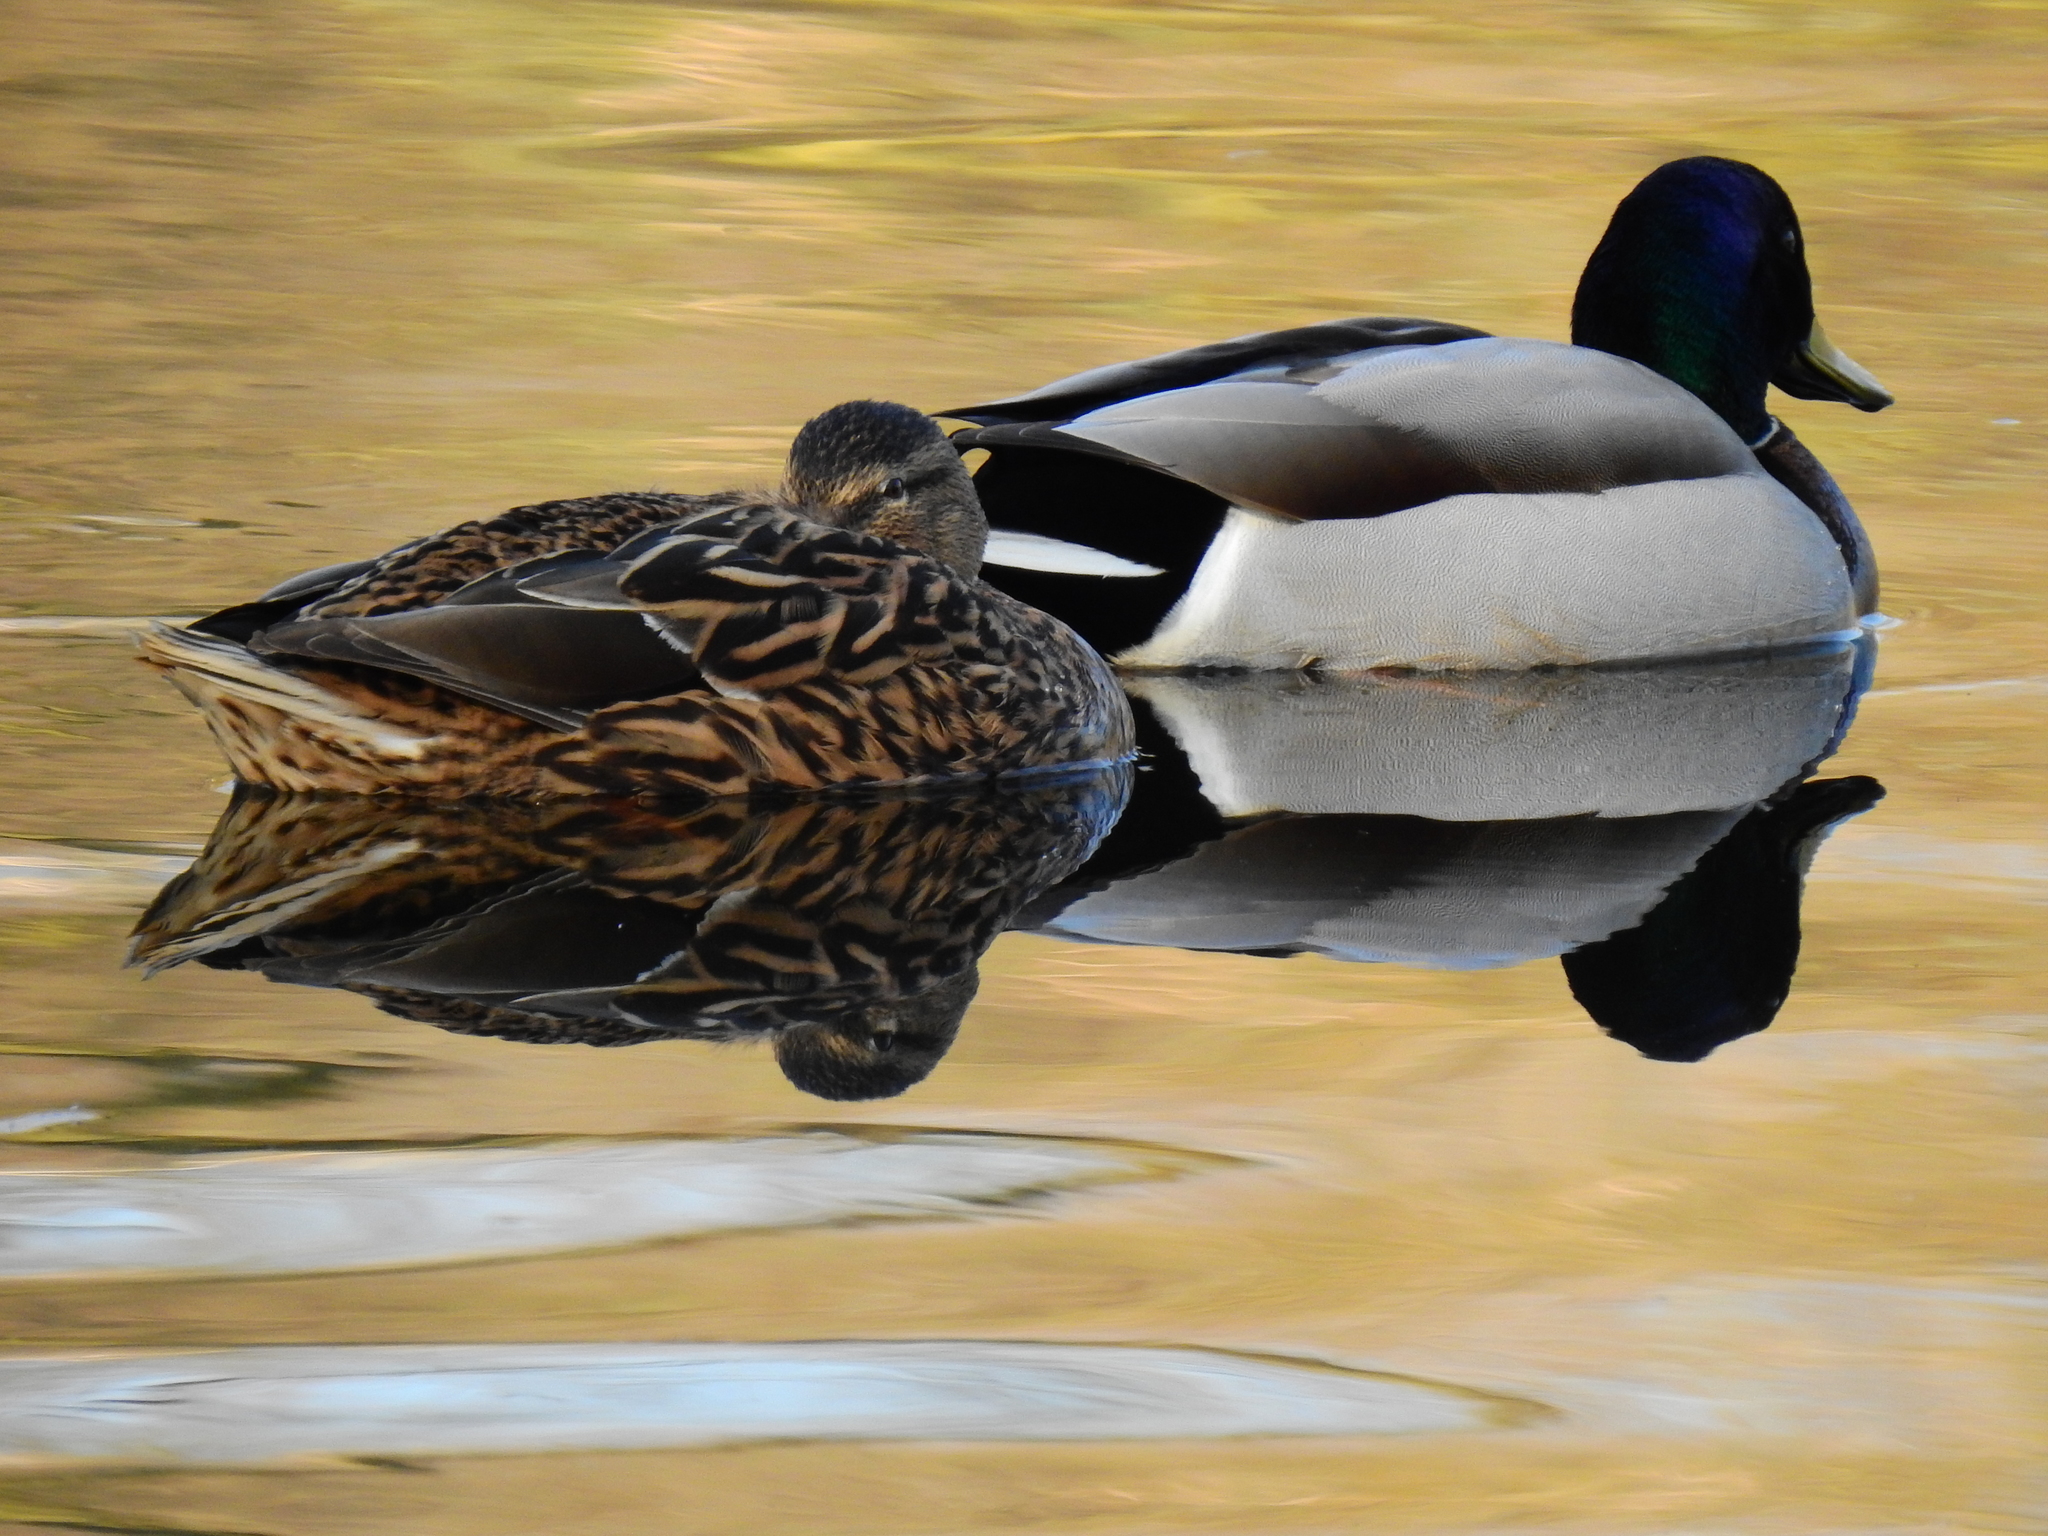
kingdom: Animalia
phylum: Chordata
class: Aves
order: Anseriformes
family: Anatidae
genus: Anas
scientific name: Anas platyrhynchos
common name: Mallard
